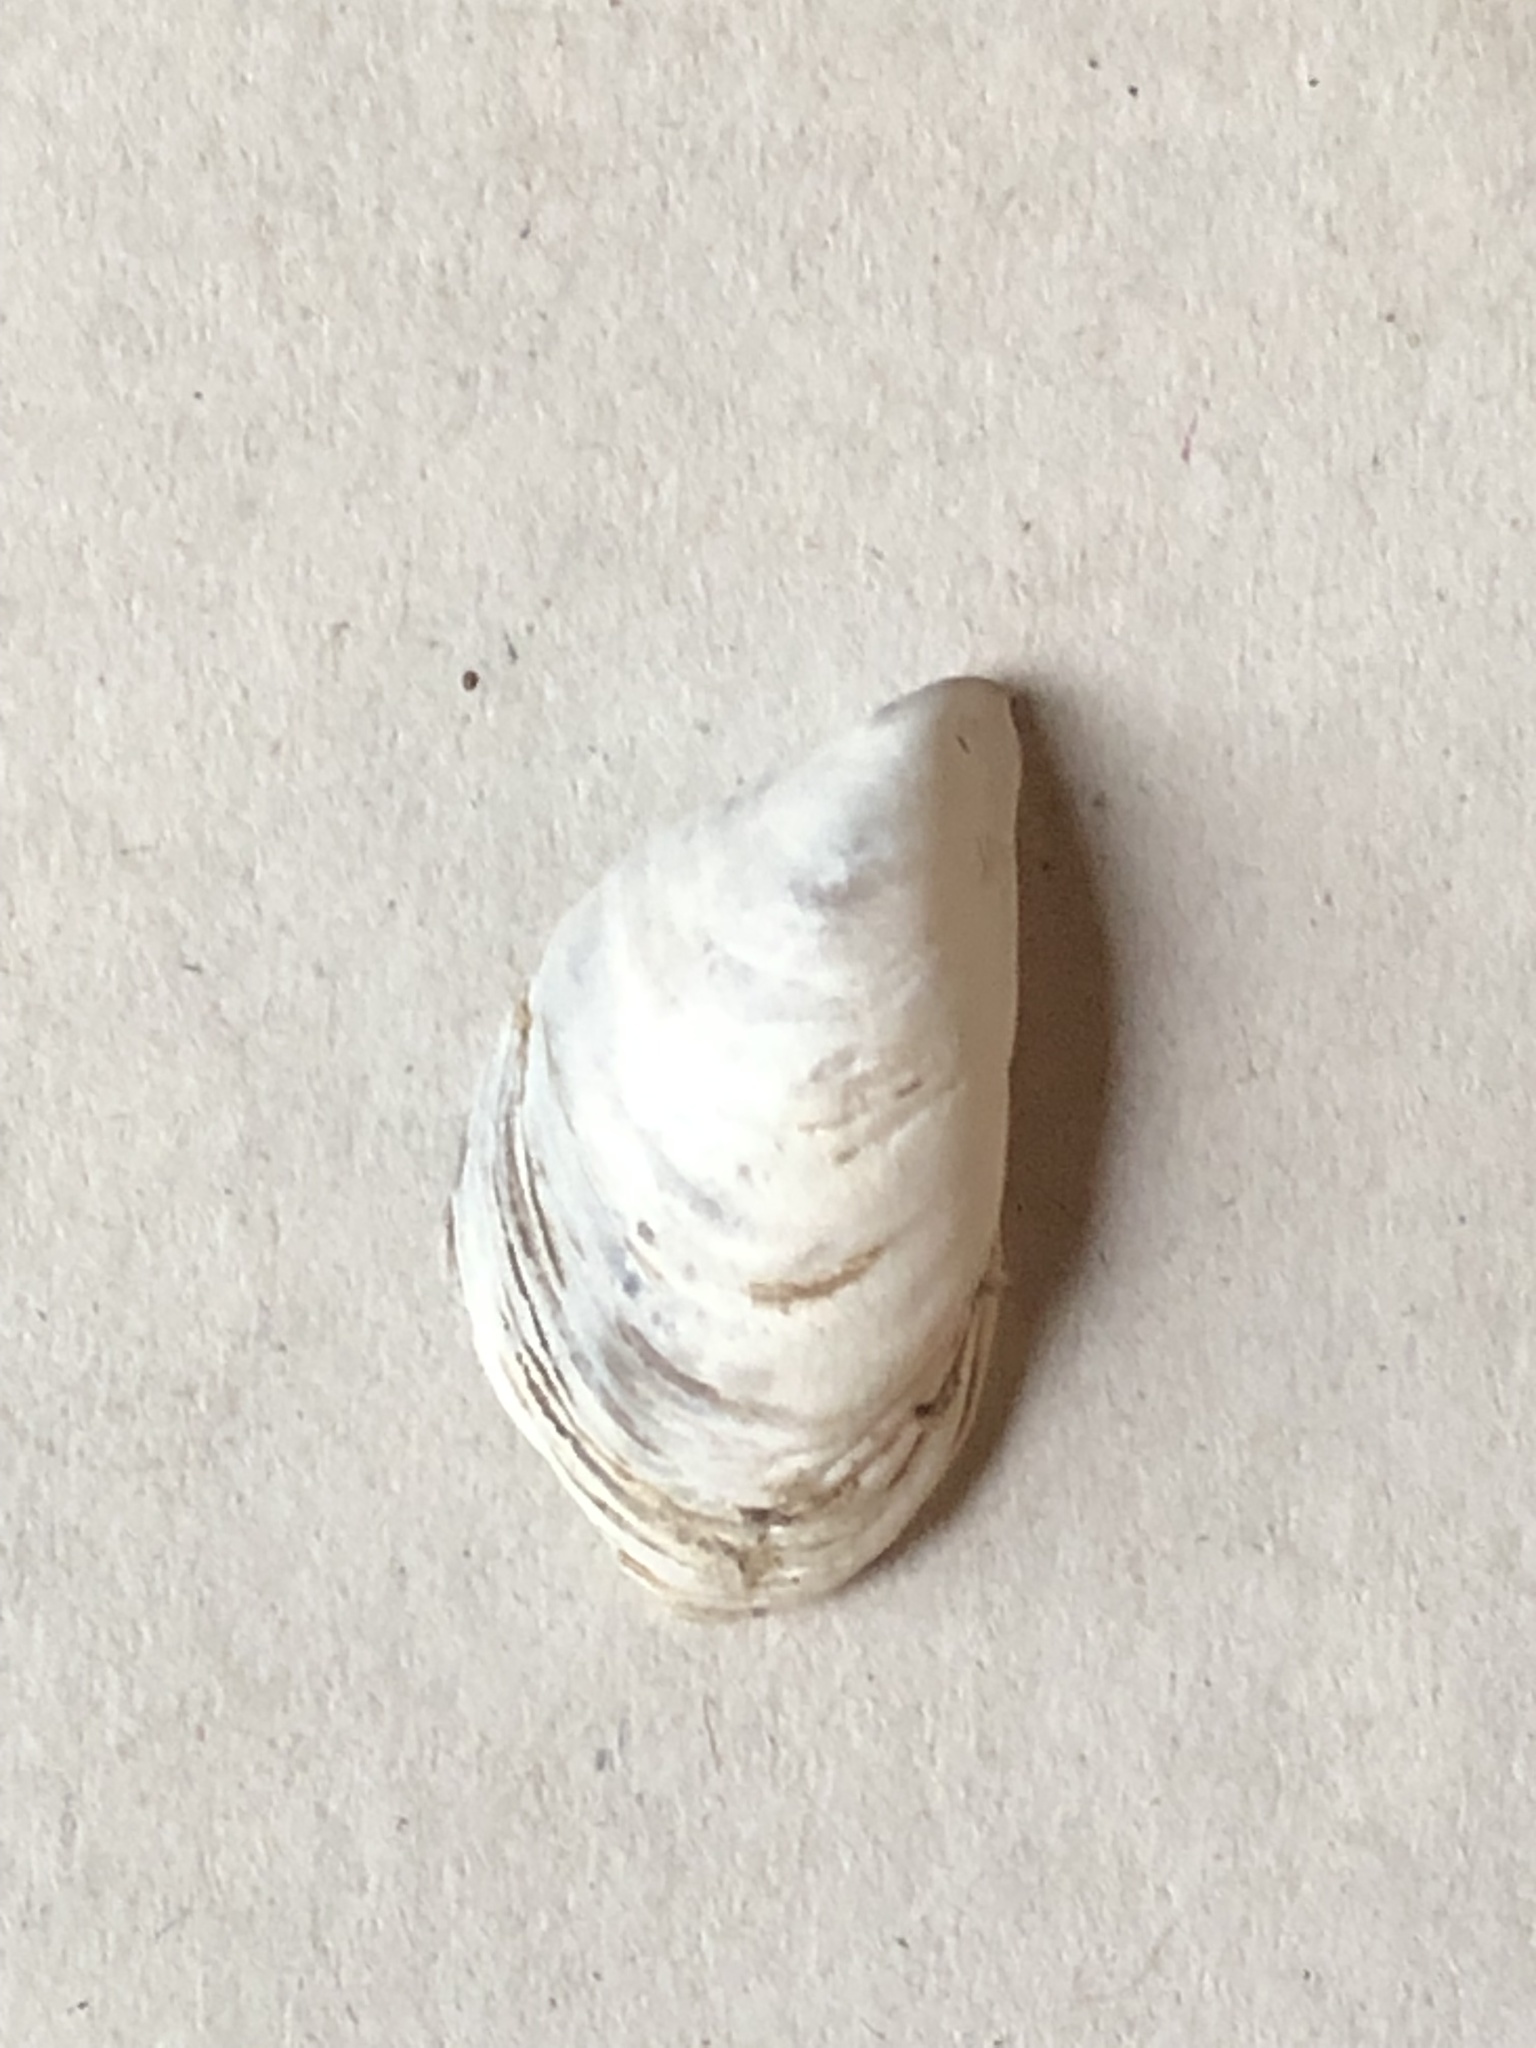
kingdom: Animalia
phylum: Mollusca
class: Bivalvia
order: Myida
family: Dreissenidae
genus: Dreissena
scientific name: Dreissena bugensis
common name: Quagga mussel
